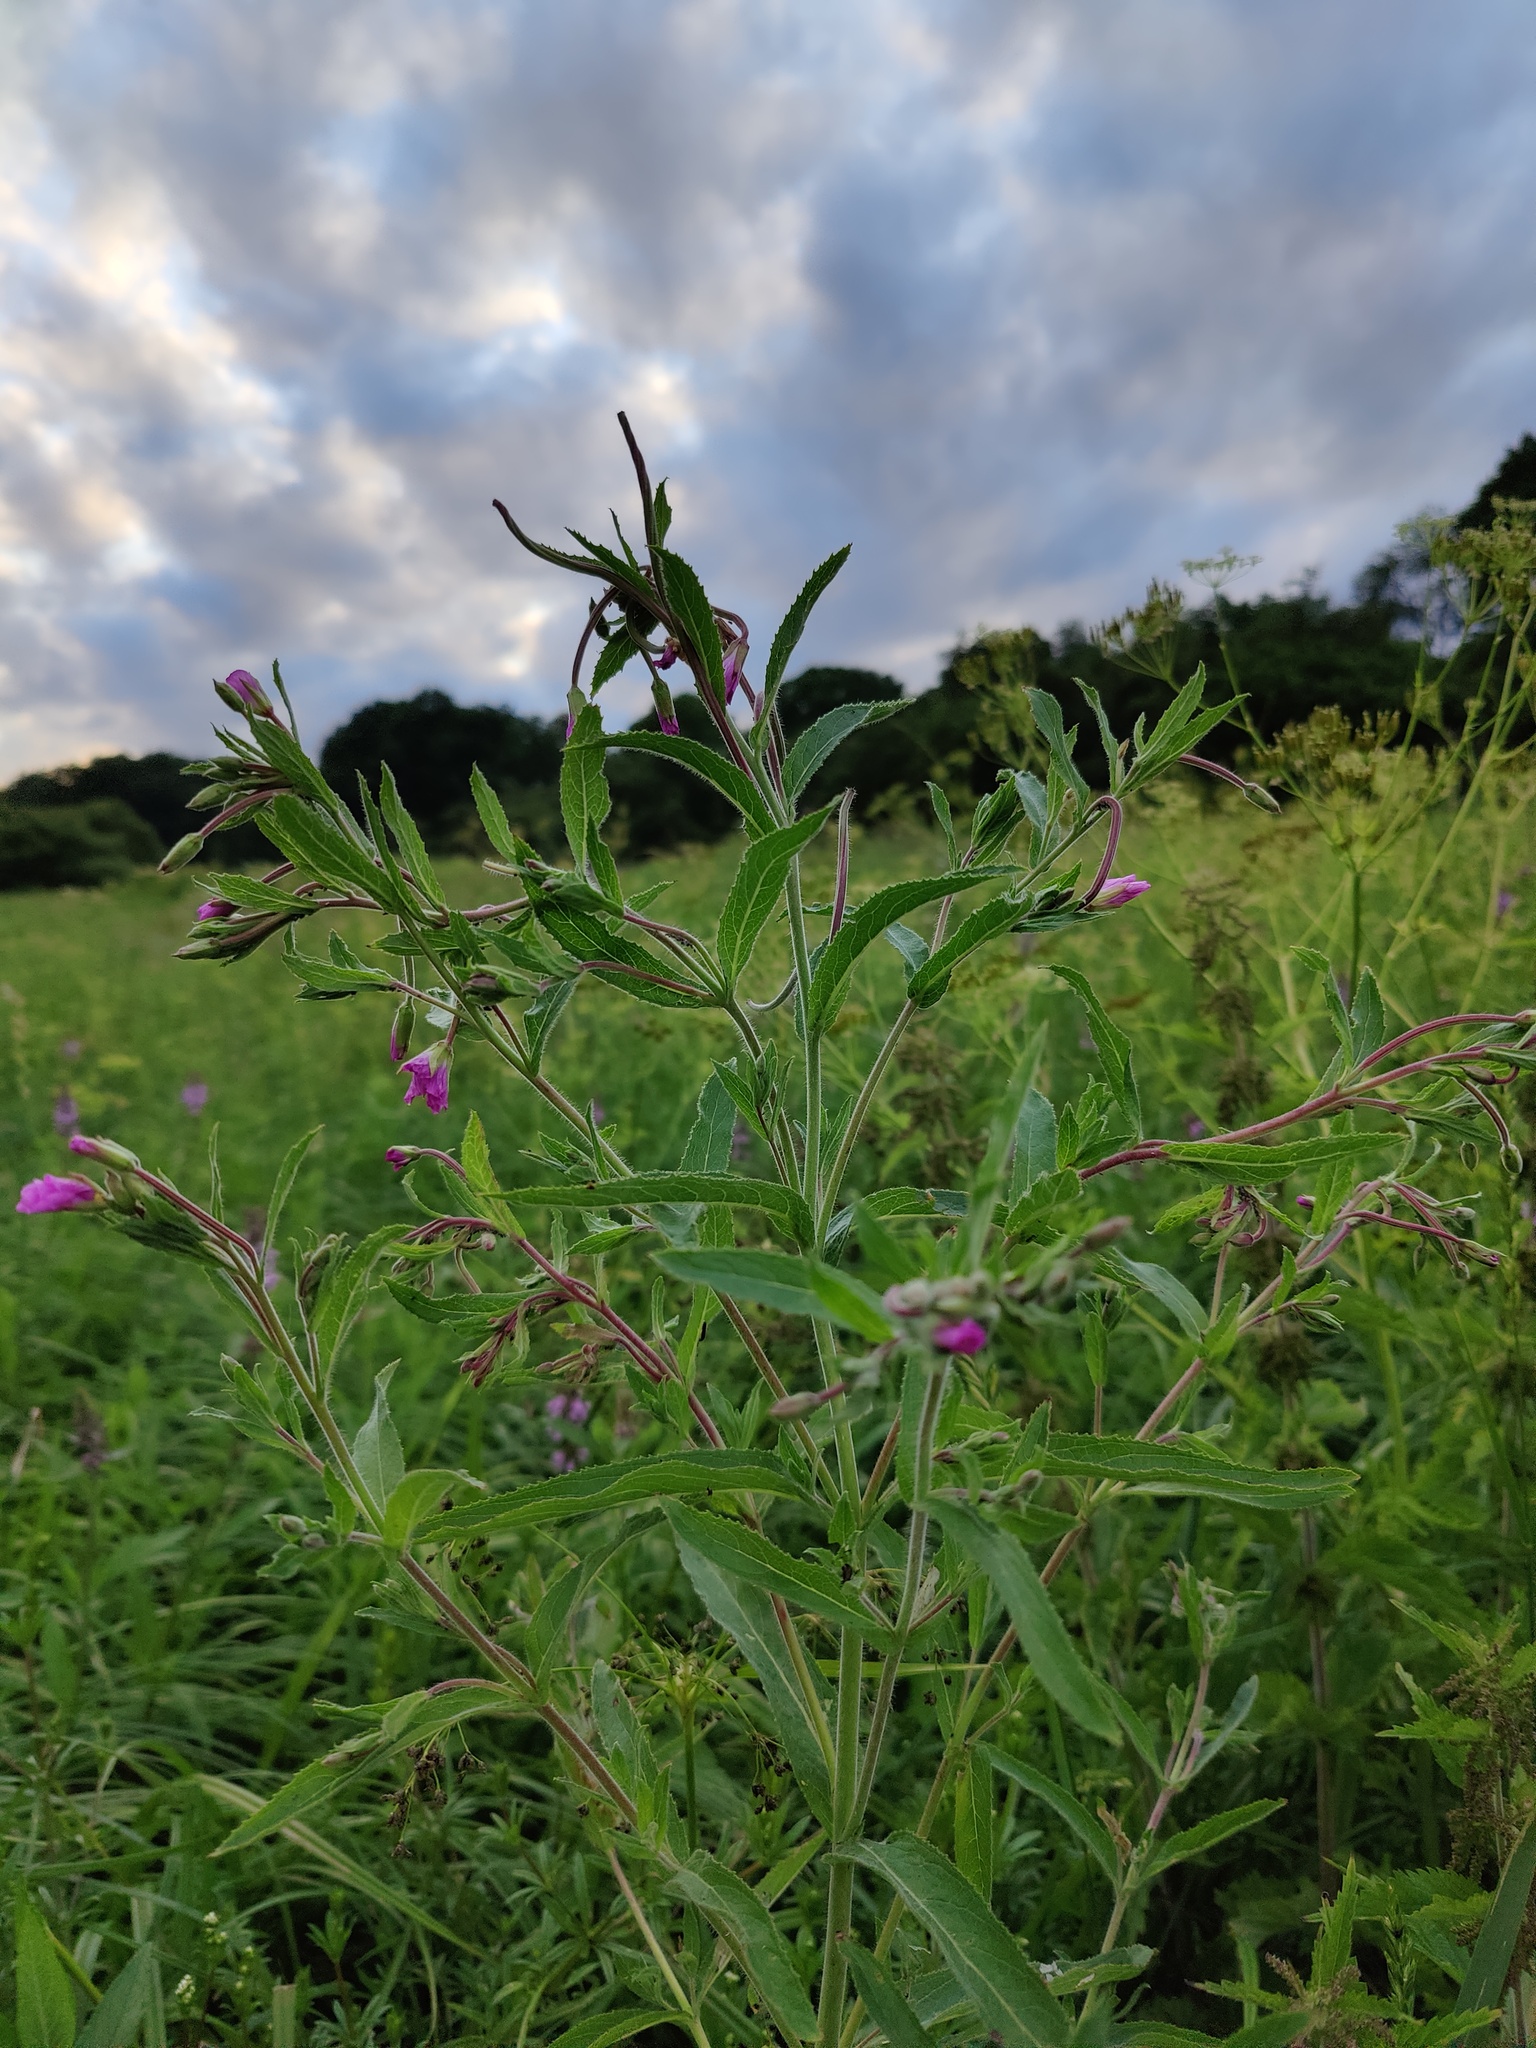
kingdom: Plantae
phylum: Tracheophyta
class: Magnoliopsida
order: Myrtales
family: Onagraceae
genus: Epilobium
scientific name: Epilobium hirsutum
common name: Great willowherb
